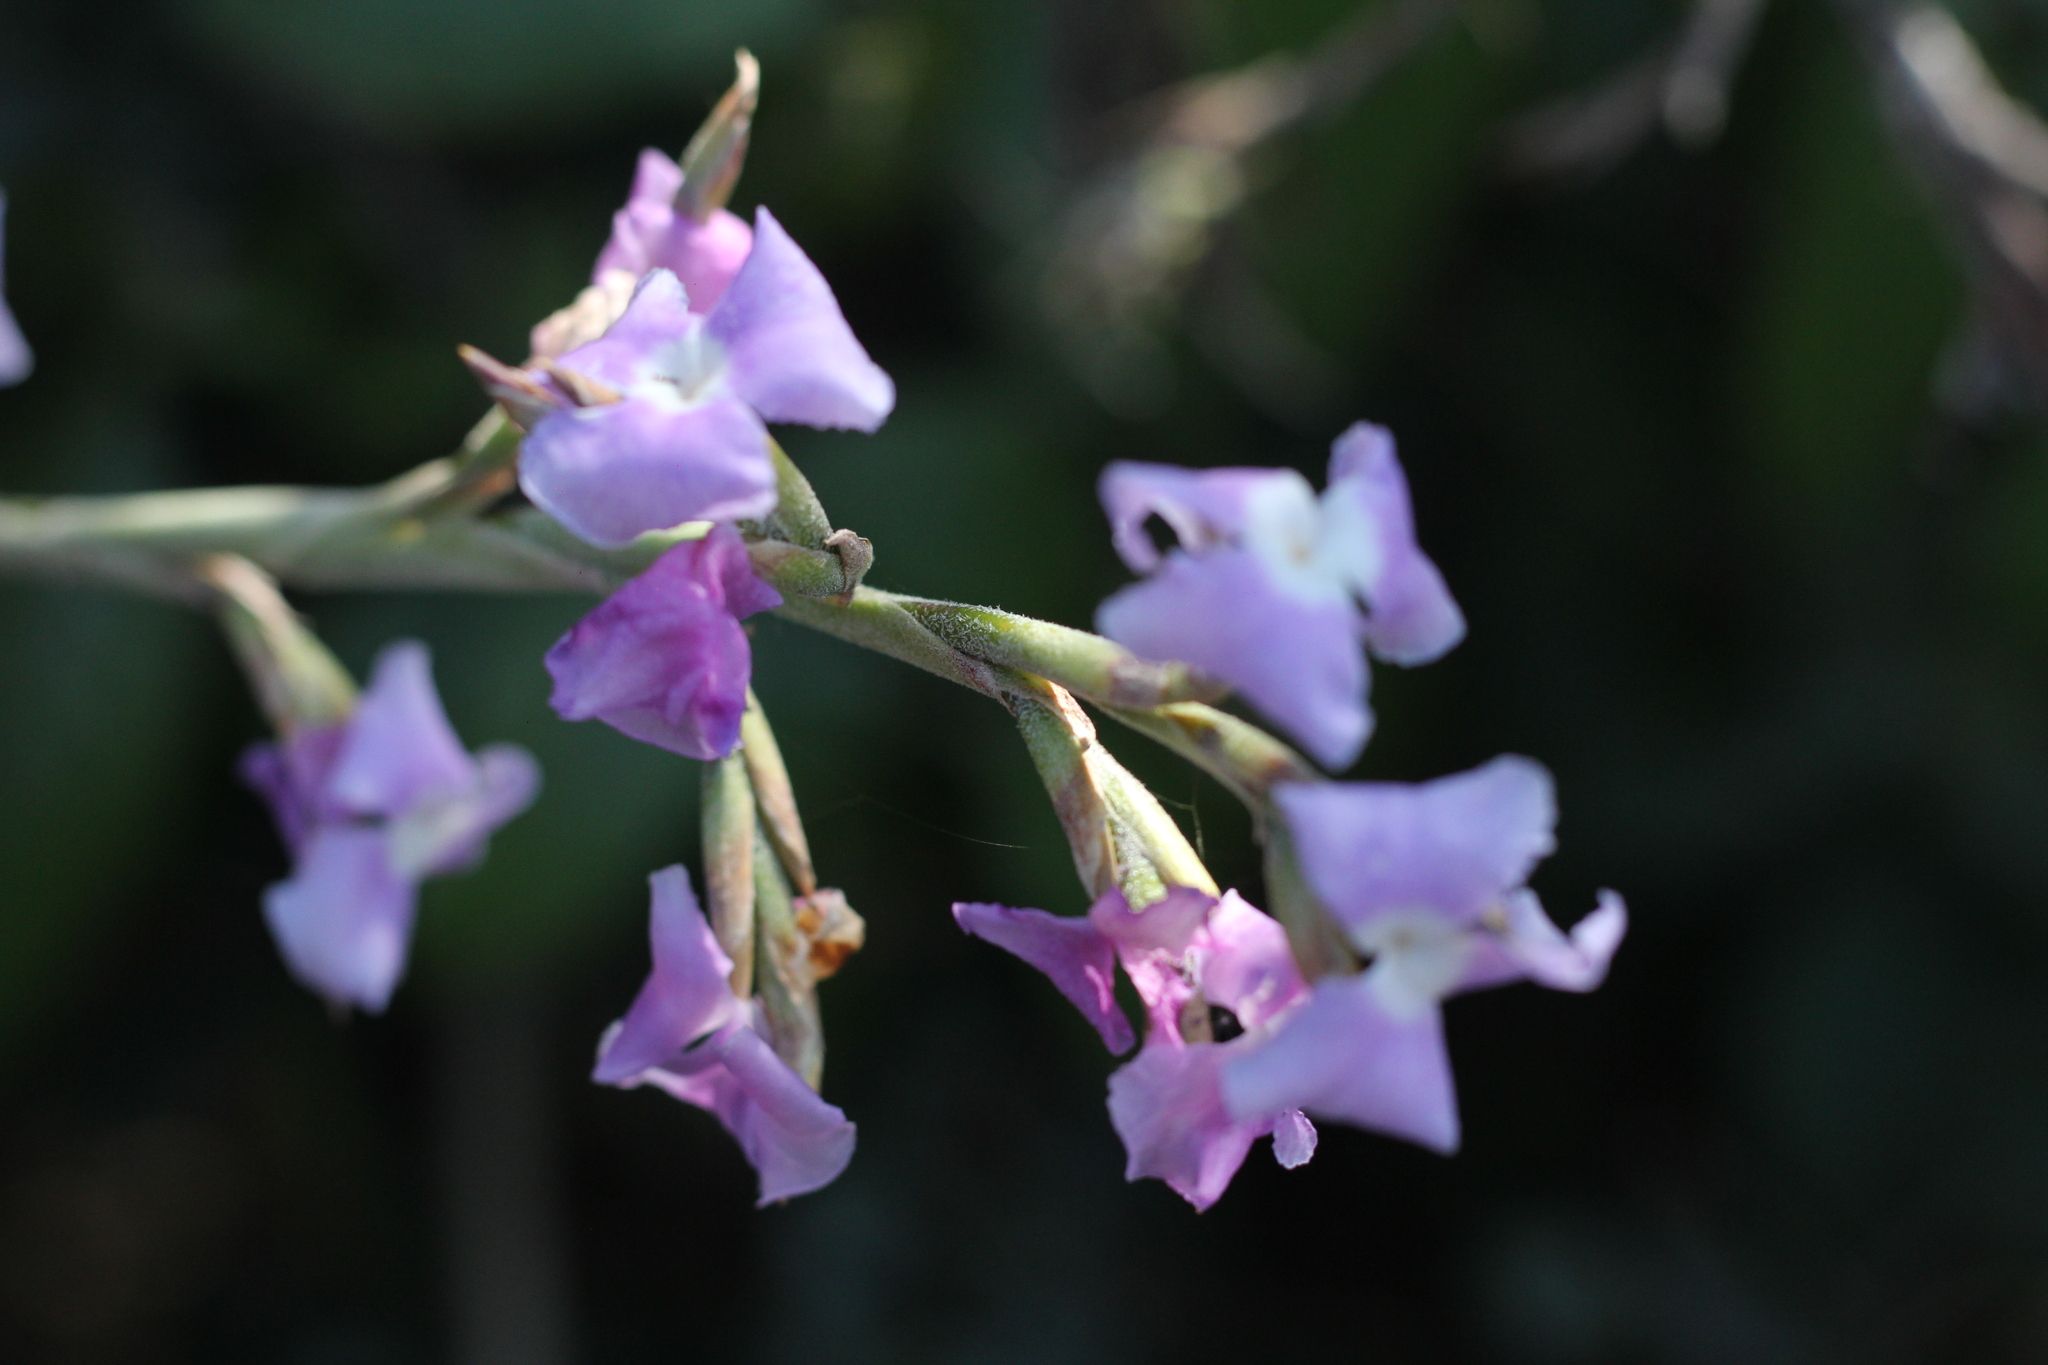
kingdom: Plantae
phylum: Tracheophyta
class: Liliopsida
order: Poales
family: Bromeliaceae
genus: Tillandsia
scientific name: Tillandsia duratii
